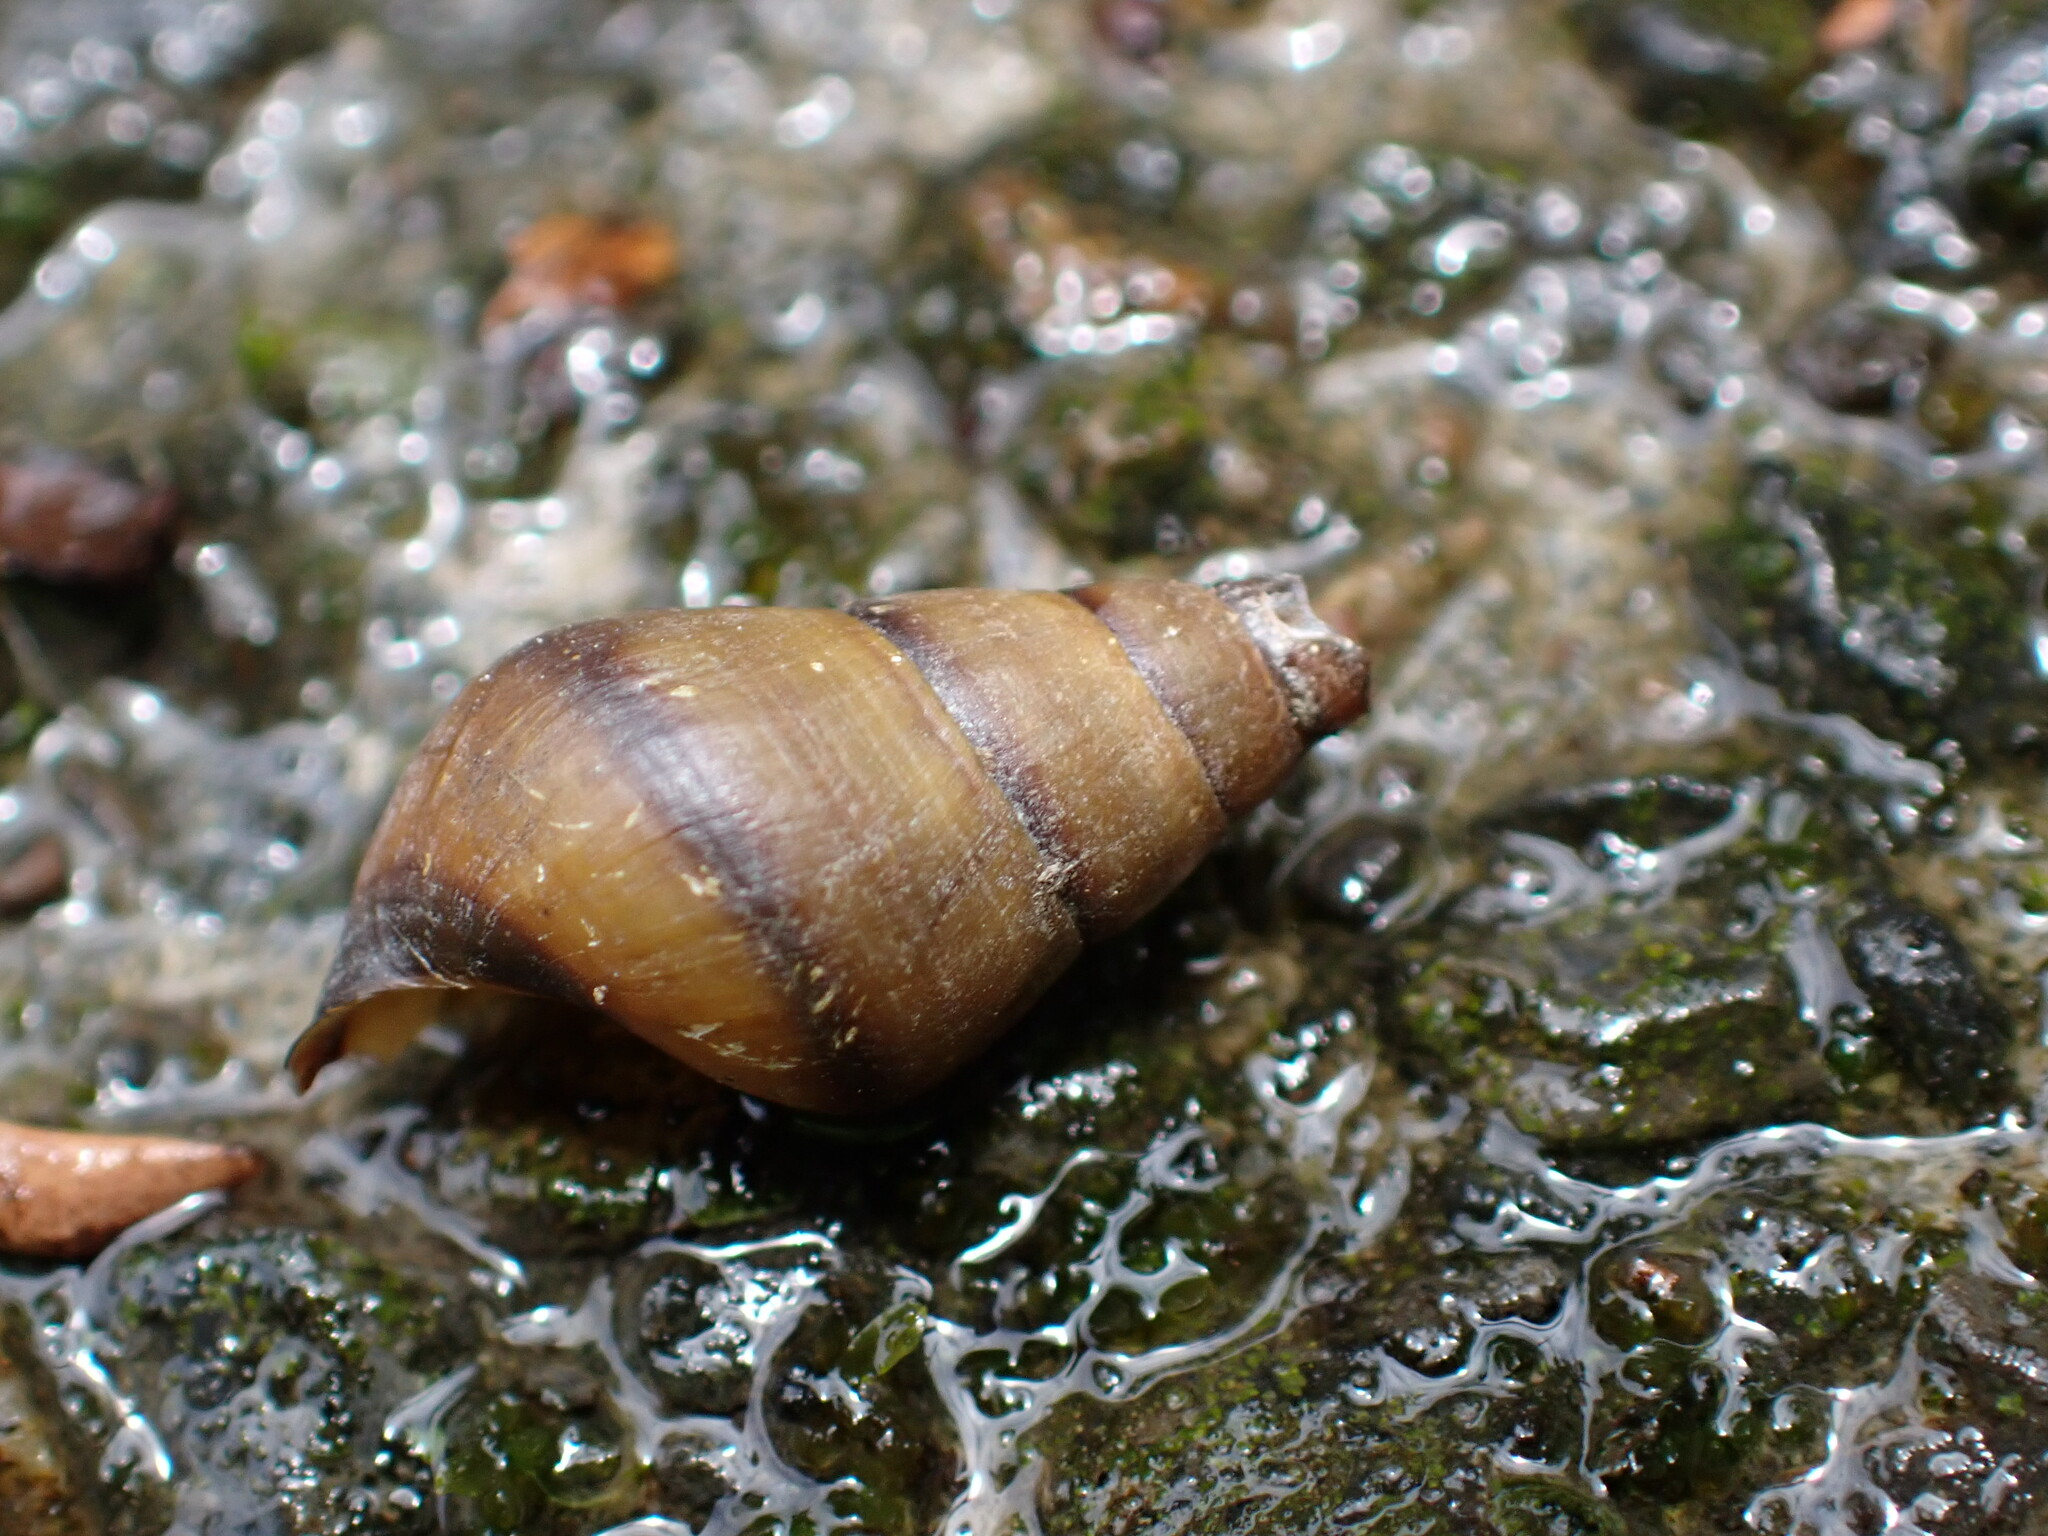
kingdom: Animalia
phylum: Mollusca
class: Gastropoda
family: Semisulcospiridae
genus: Semisulcospira
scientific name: Semisulcospira libertina
